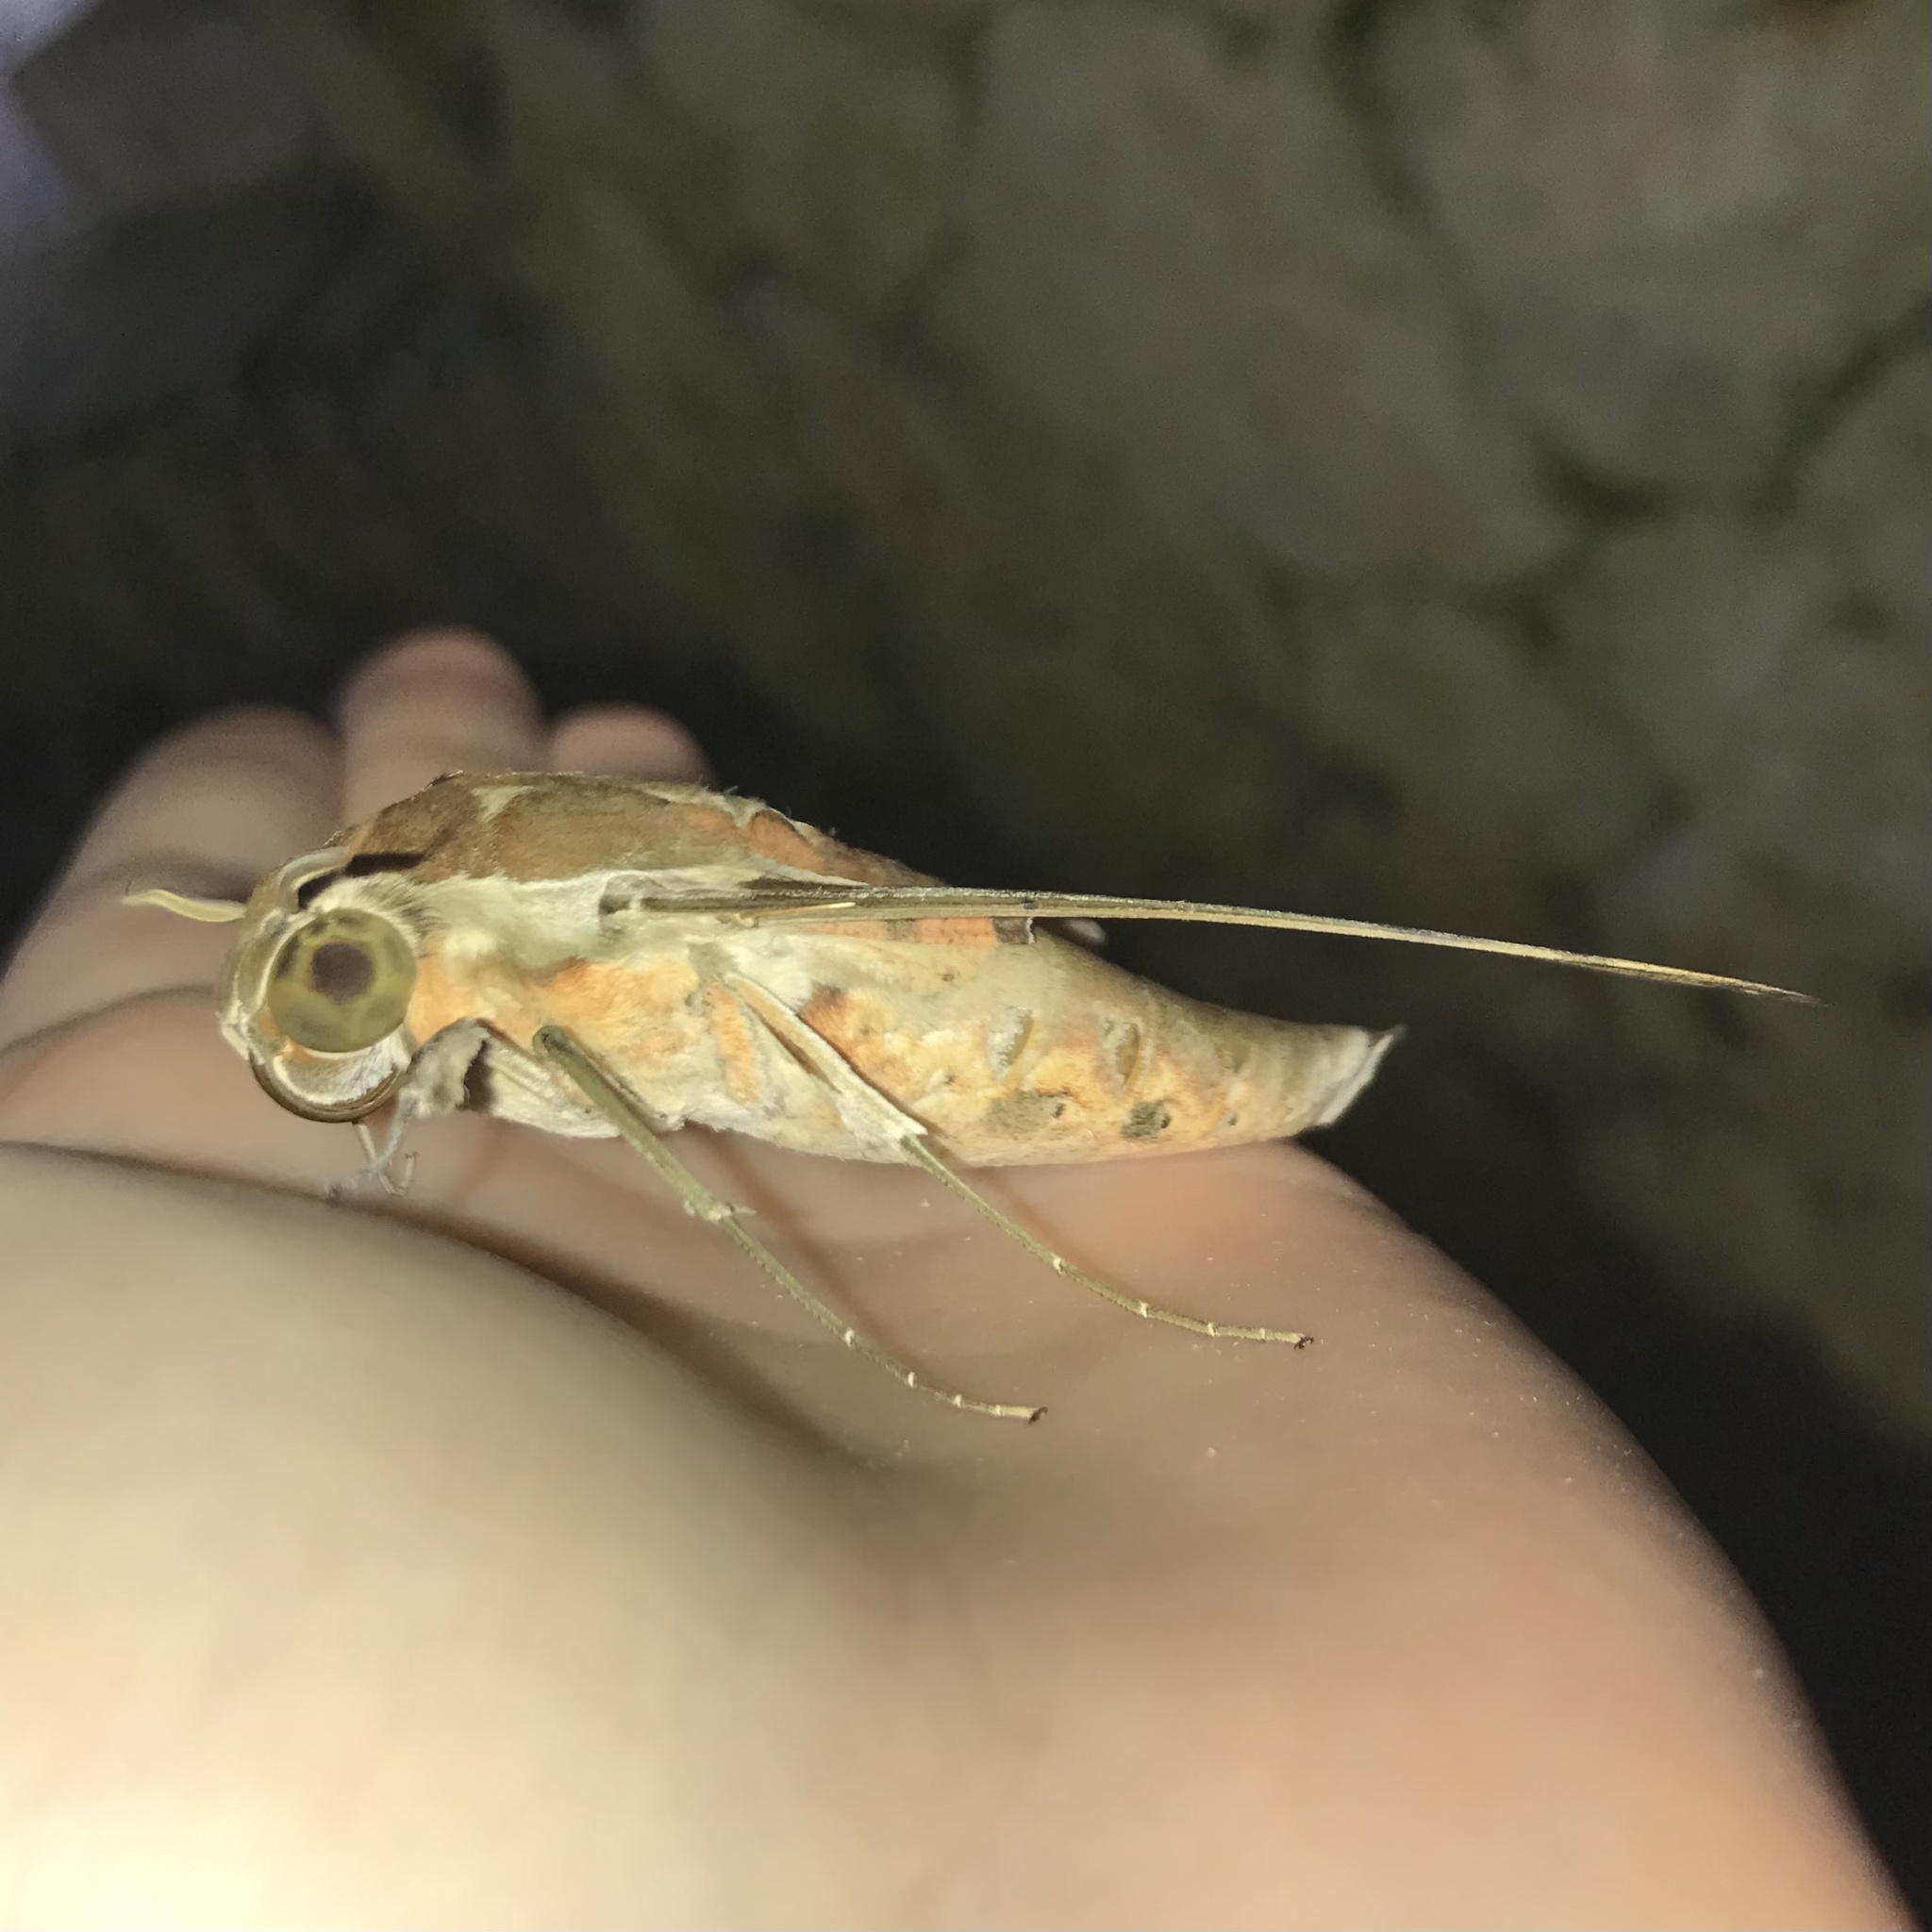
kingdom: Animalia
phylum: Arthropoda
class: Insecta
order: Lepidoptera
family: Sphingidae
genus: Cechenena
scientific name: Cechenena helops
